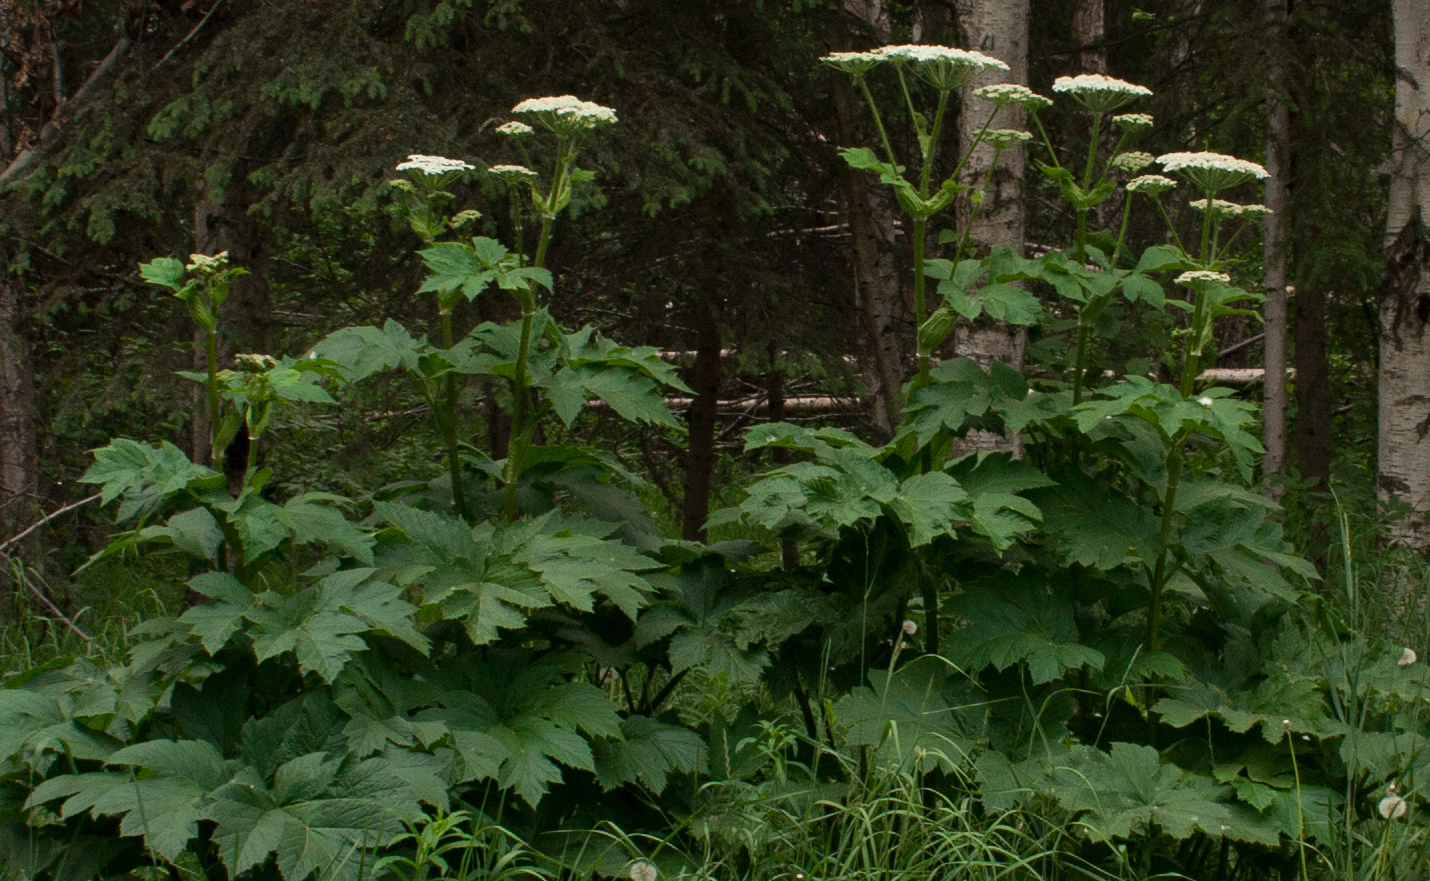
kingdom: Plantae
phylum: Tracheophyta
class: Magnoliopsida
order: Apiales
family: Apiaceae
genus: Heracleum
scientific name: Heracleum maximum
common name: American cow parsnip
